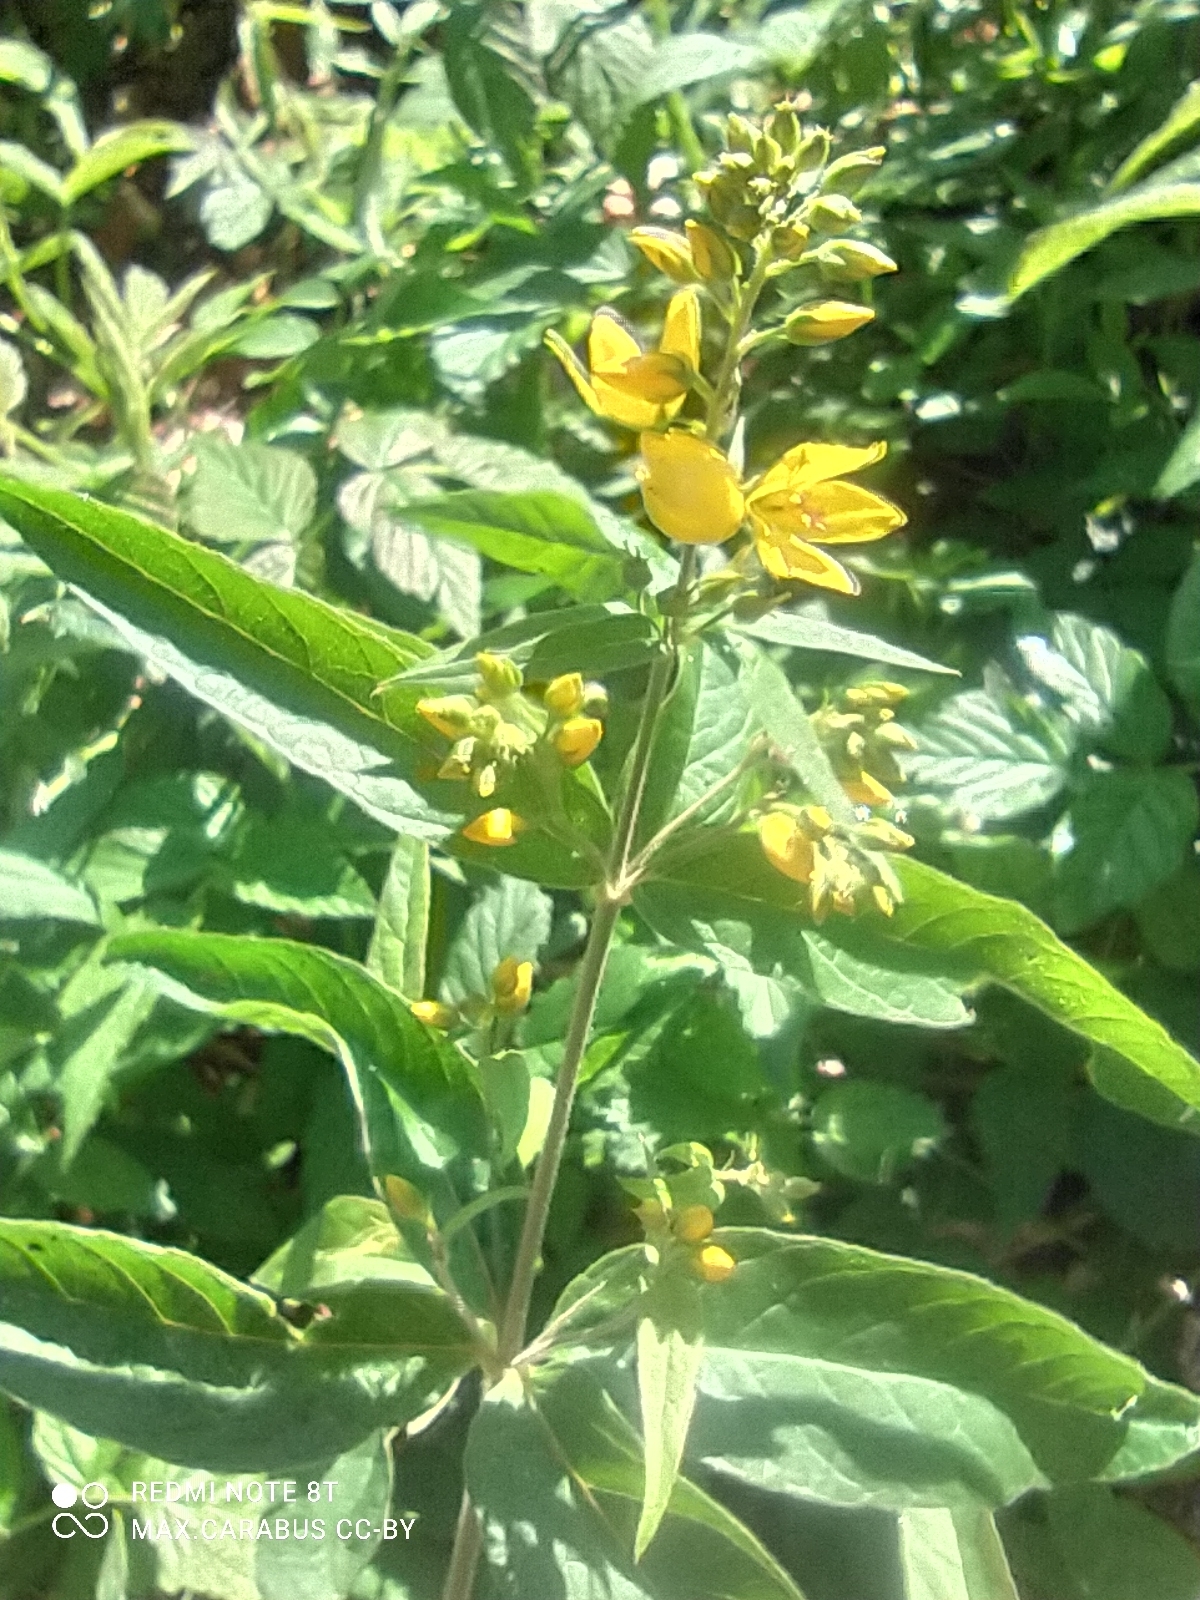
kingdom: Plantae
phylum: Tracheophyta
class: Magnoliopsida
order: Ericales
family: Primulaceae
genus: Lysimachia
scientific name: Lysimachia vulgaris
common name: Yellow loosestrife
